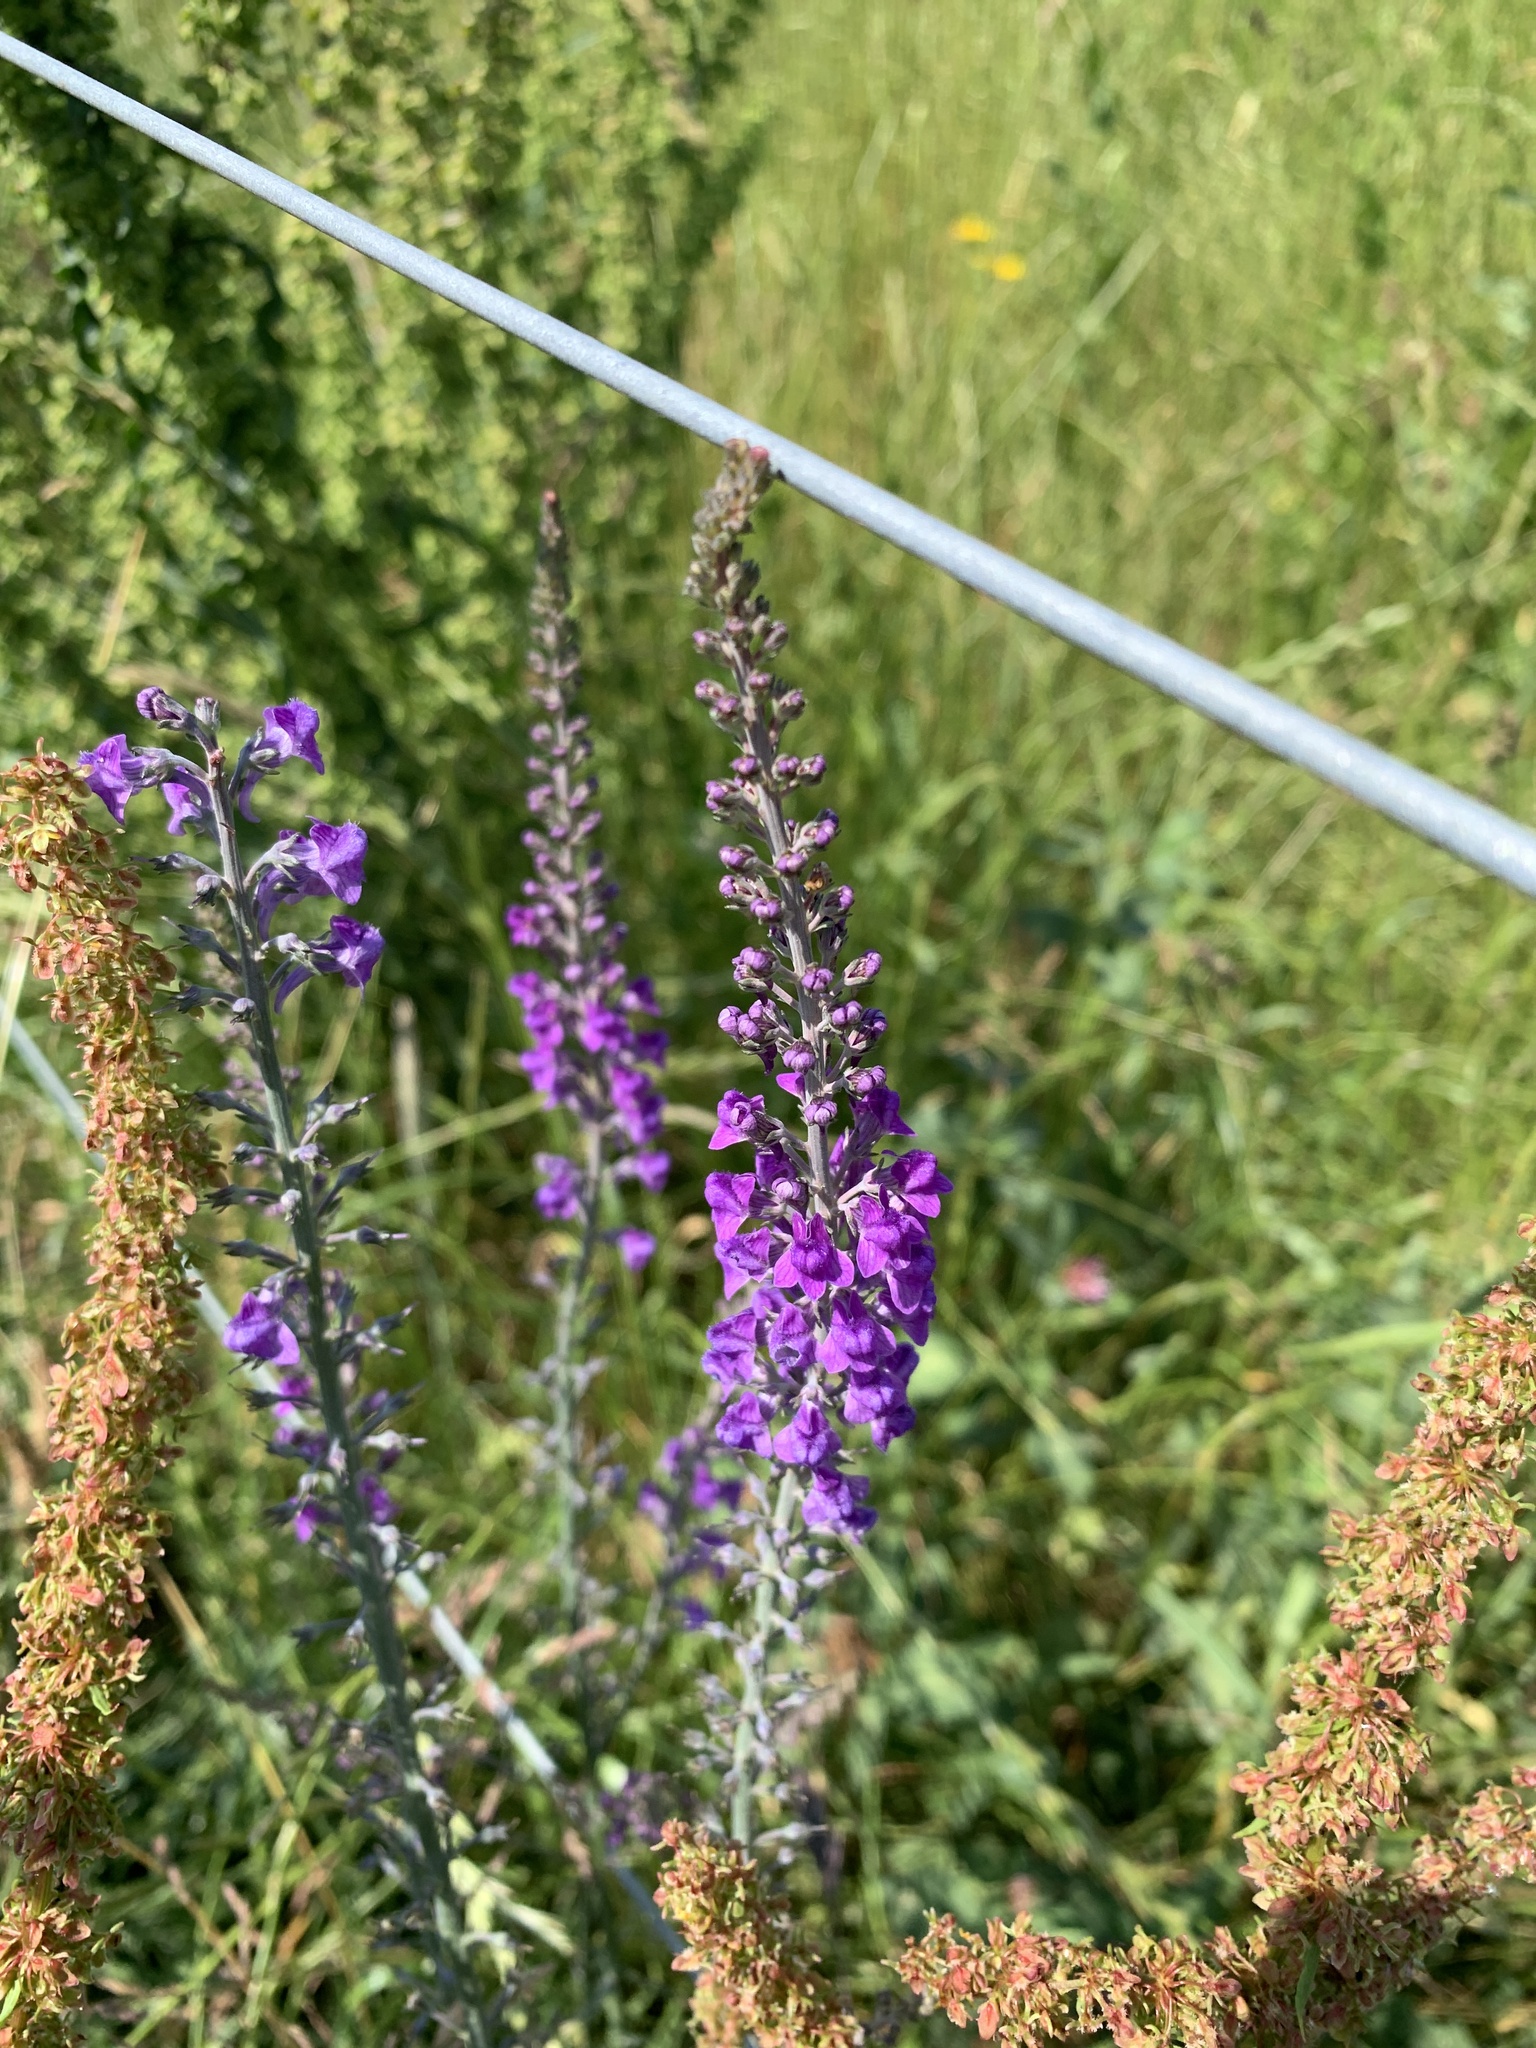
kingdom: Plantae
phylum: Tracheophyta
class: Magnoliopsida
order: Lamiales
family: Plantaginaceae
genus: Linaria
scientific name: Linaria purpurea
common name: Purple toadflax
